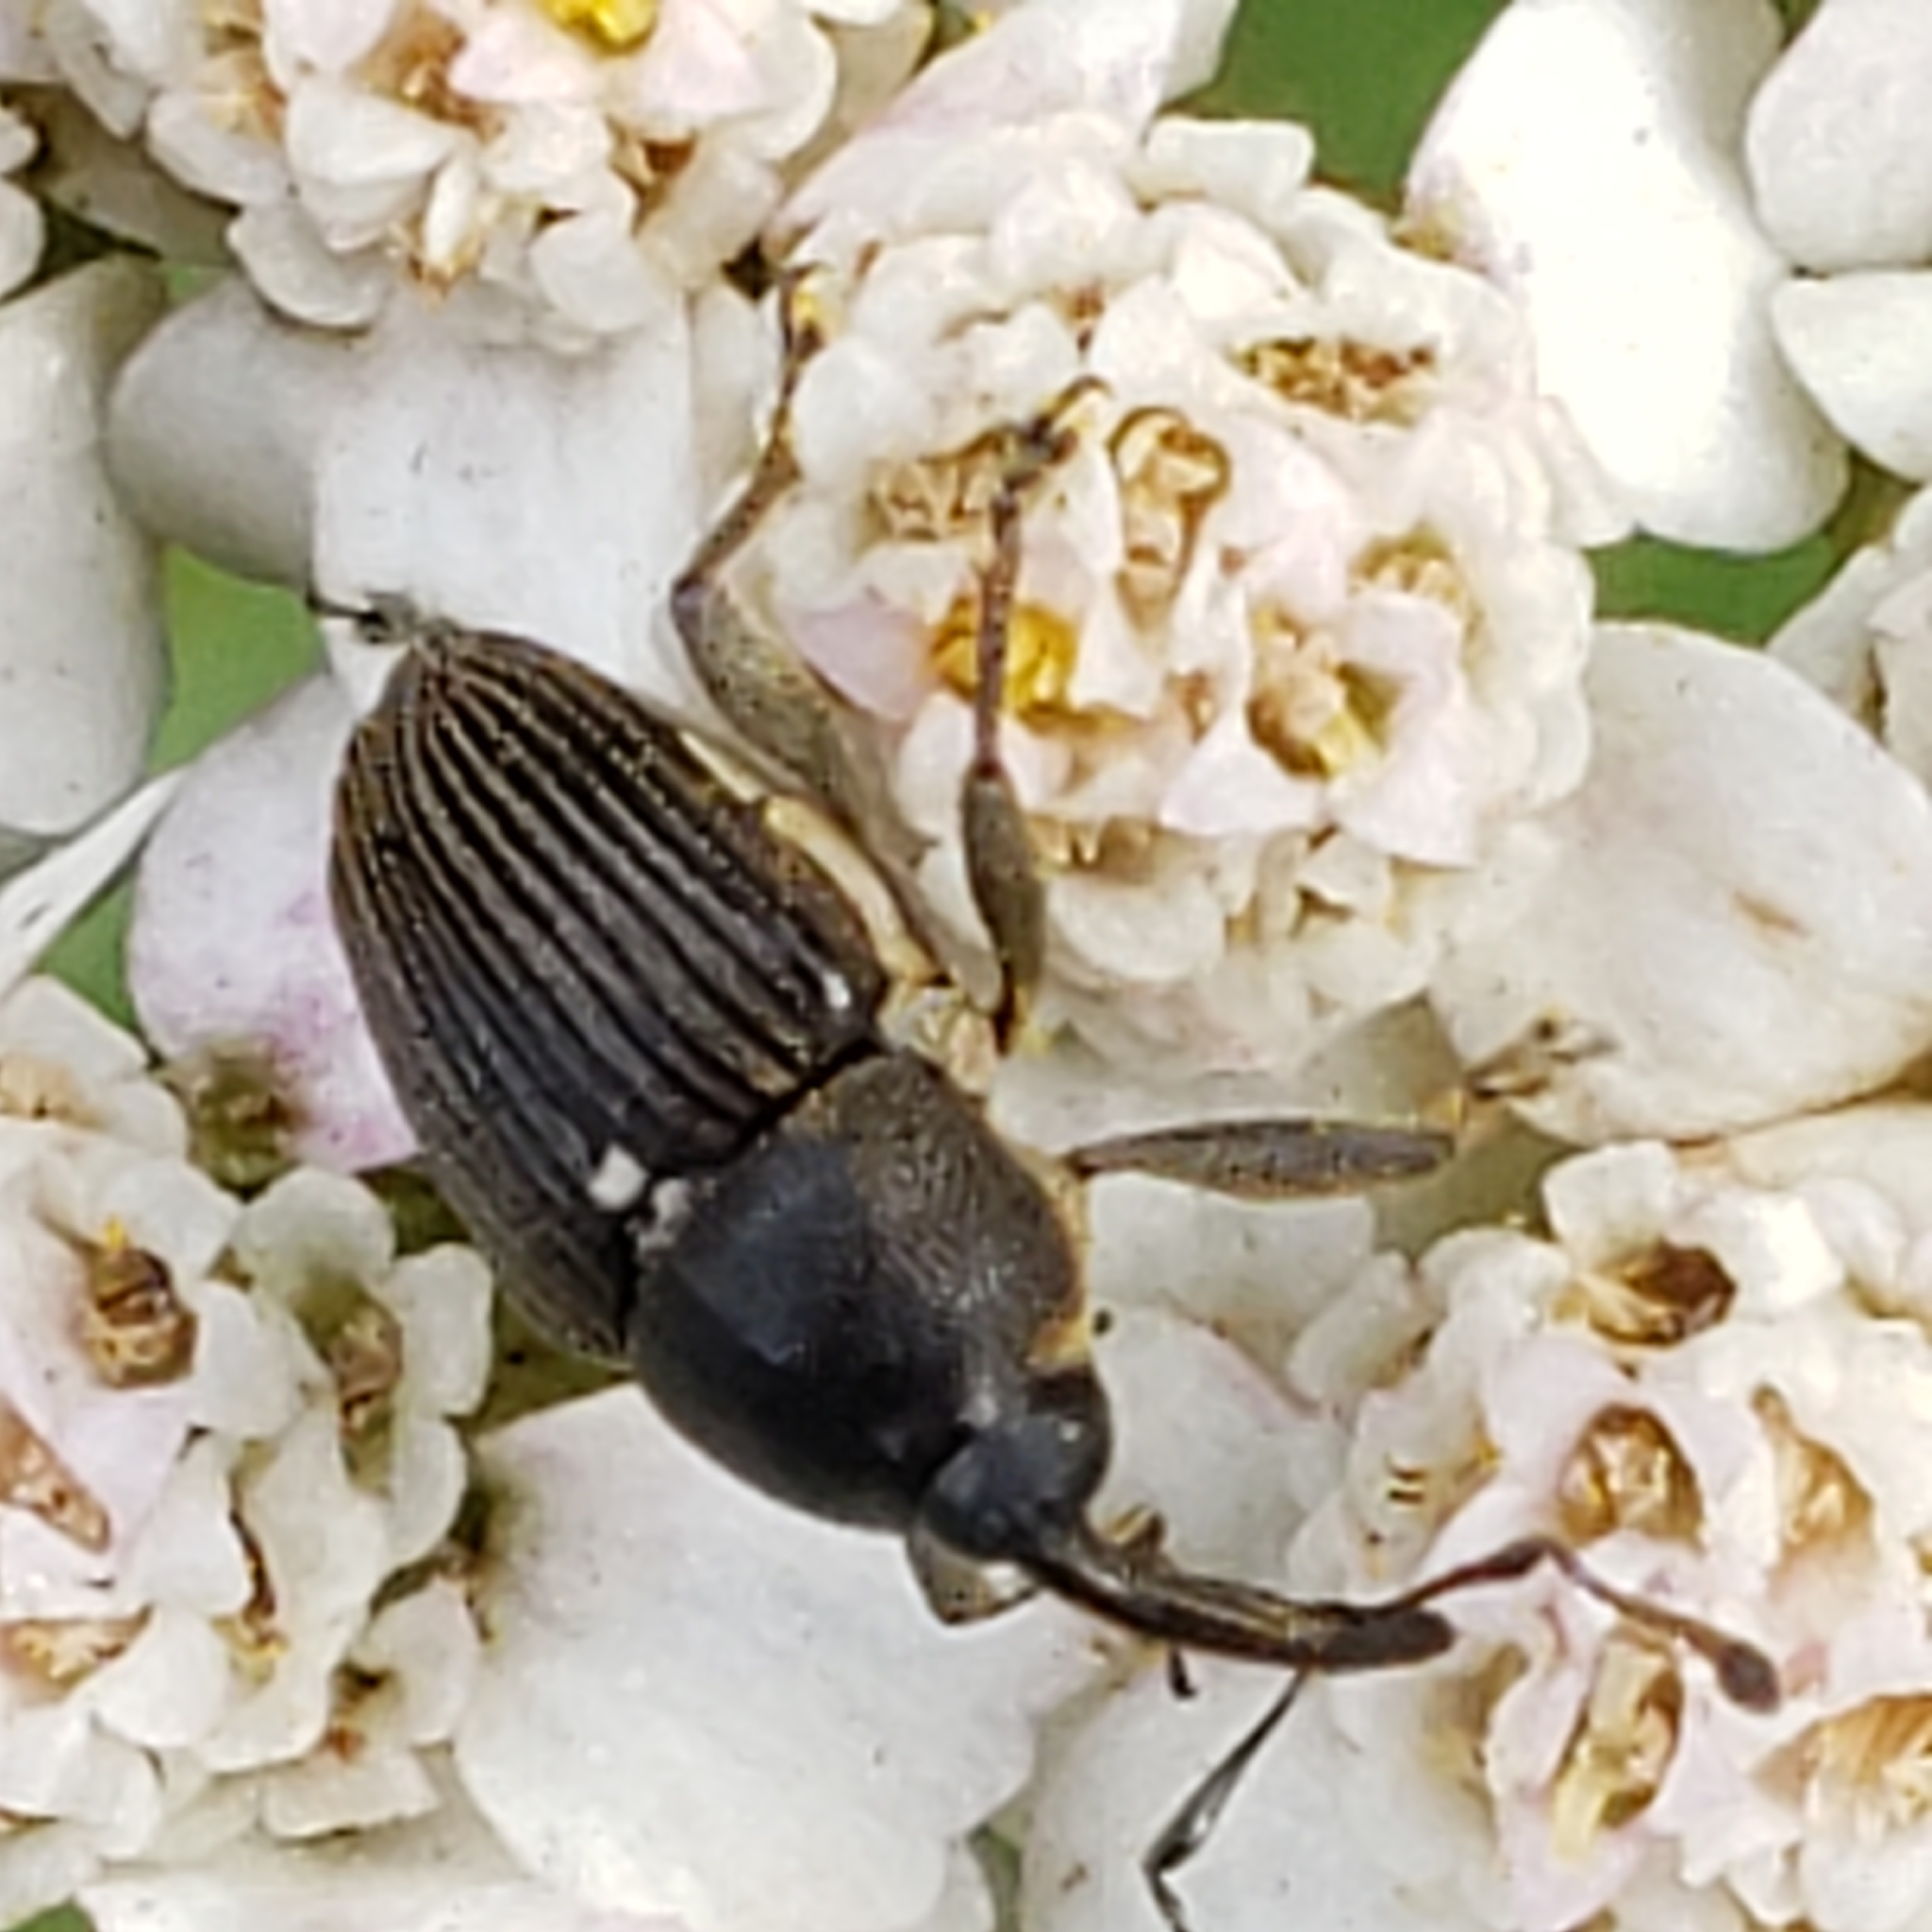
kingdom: Animalia
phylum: Arthropoda
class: Insecta
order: Coleoptera
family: Curculionidae
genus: Odontocorynus
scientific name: Odontocorynus salebrosus
